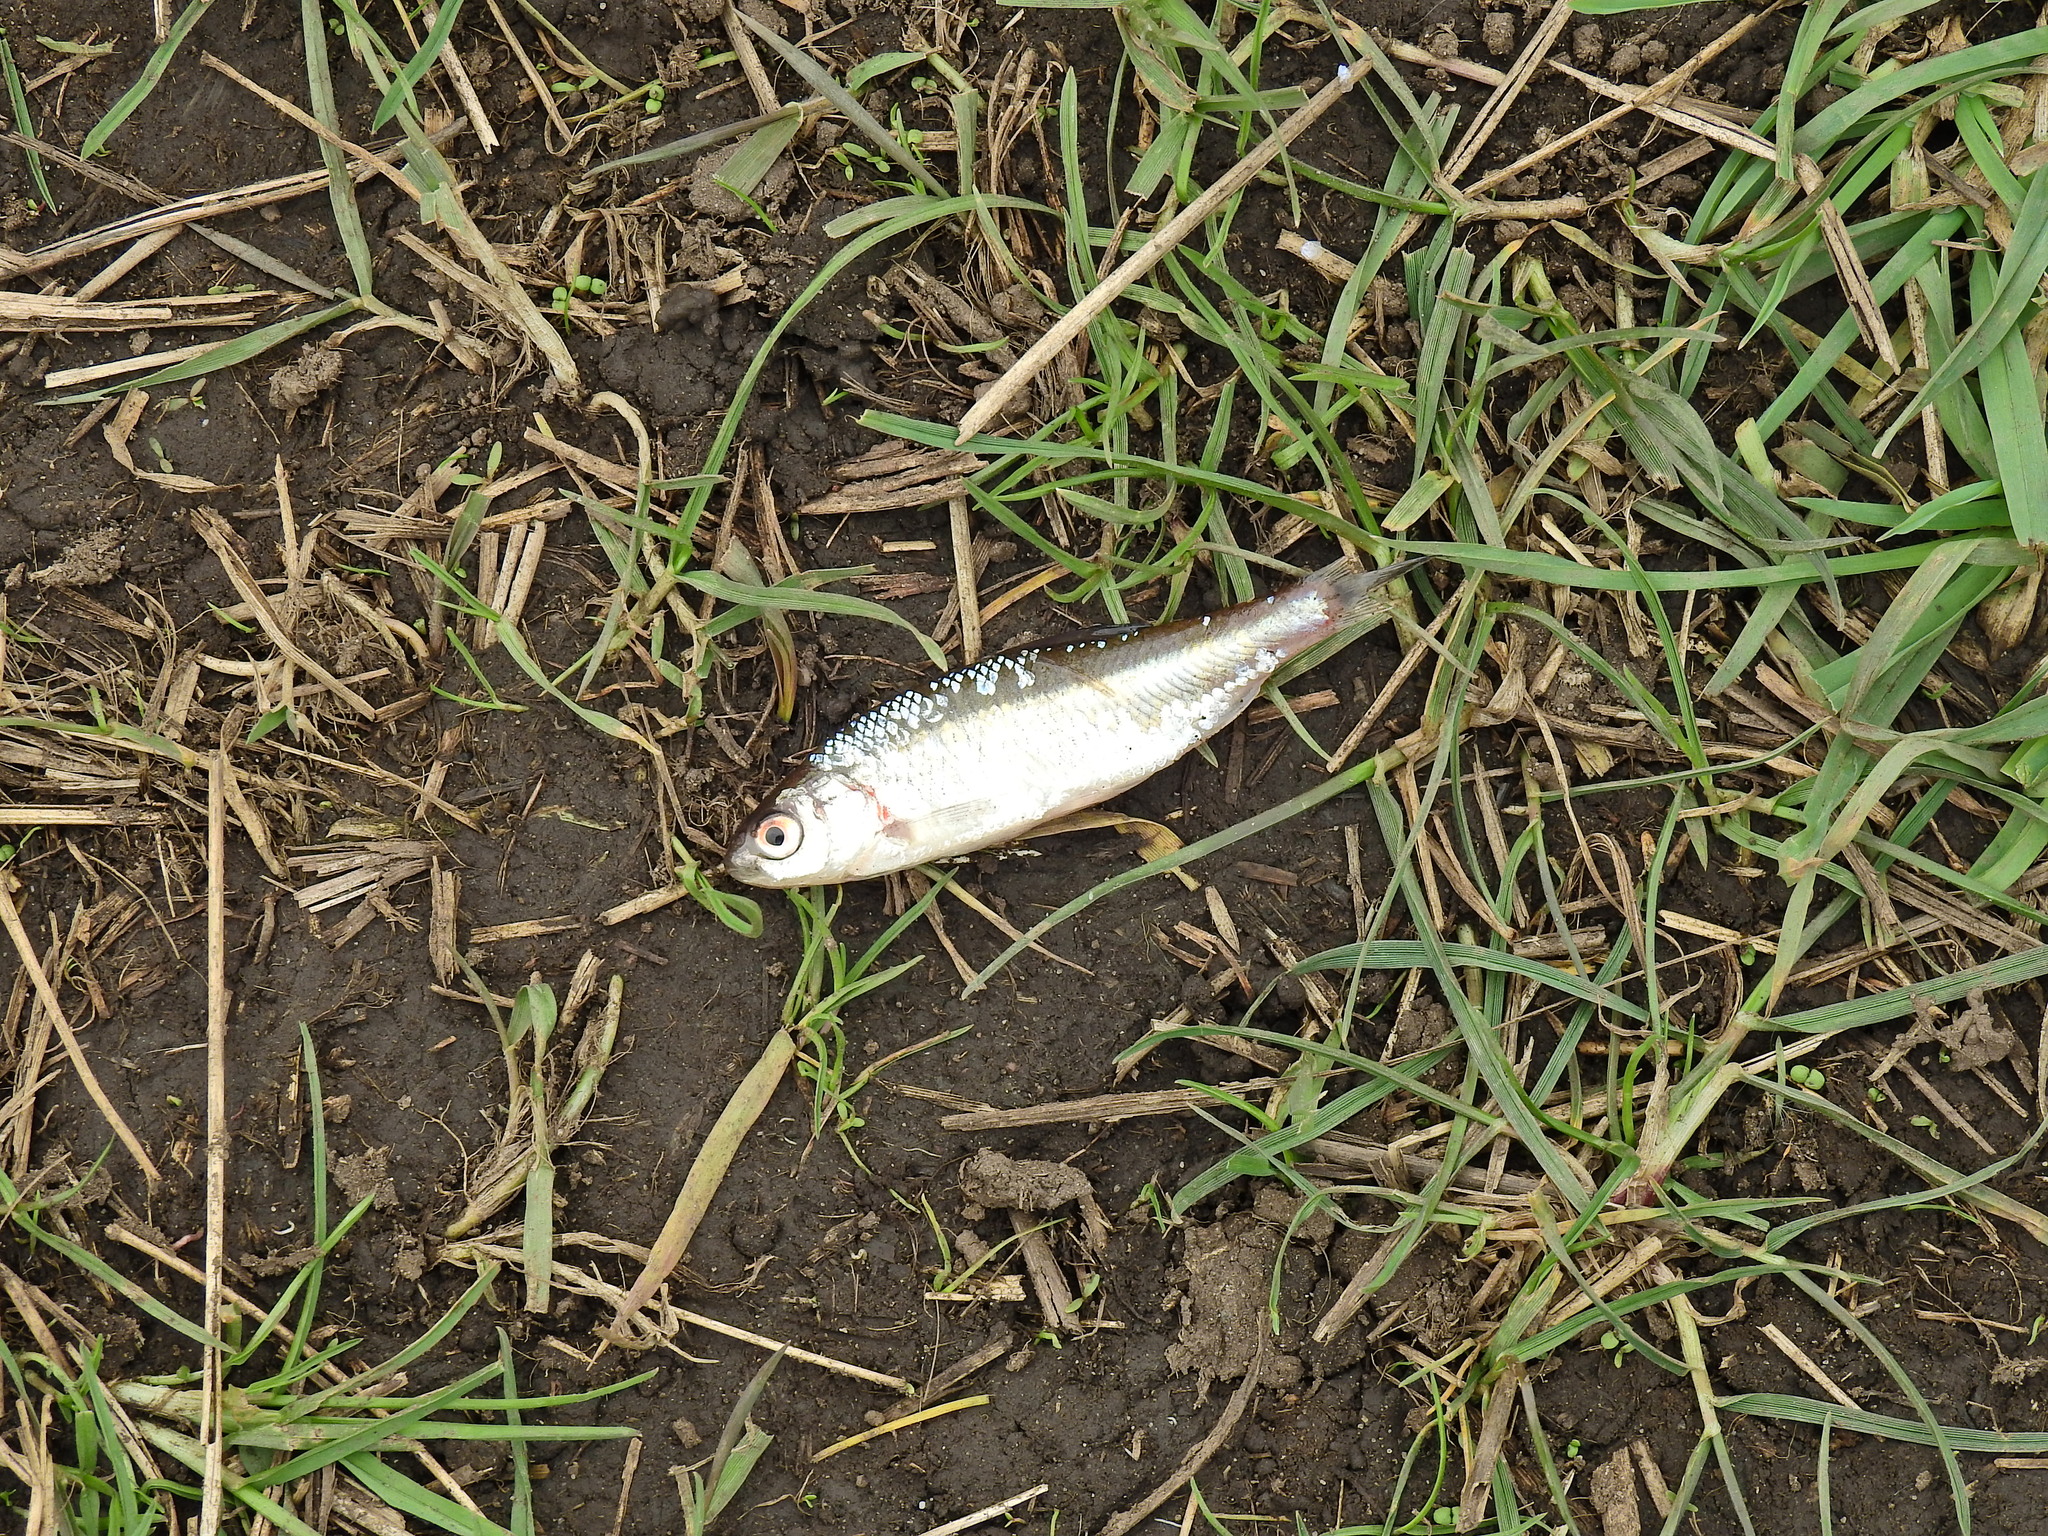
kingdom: Animalia
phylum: Chordata
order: Cypriniformes
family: Cyprinidae
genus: Rutilus
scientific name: Rutilus rutilus
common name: Roach
